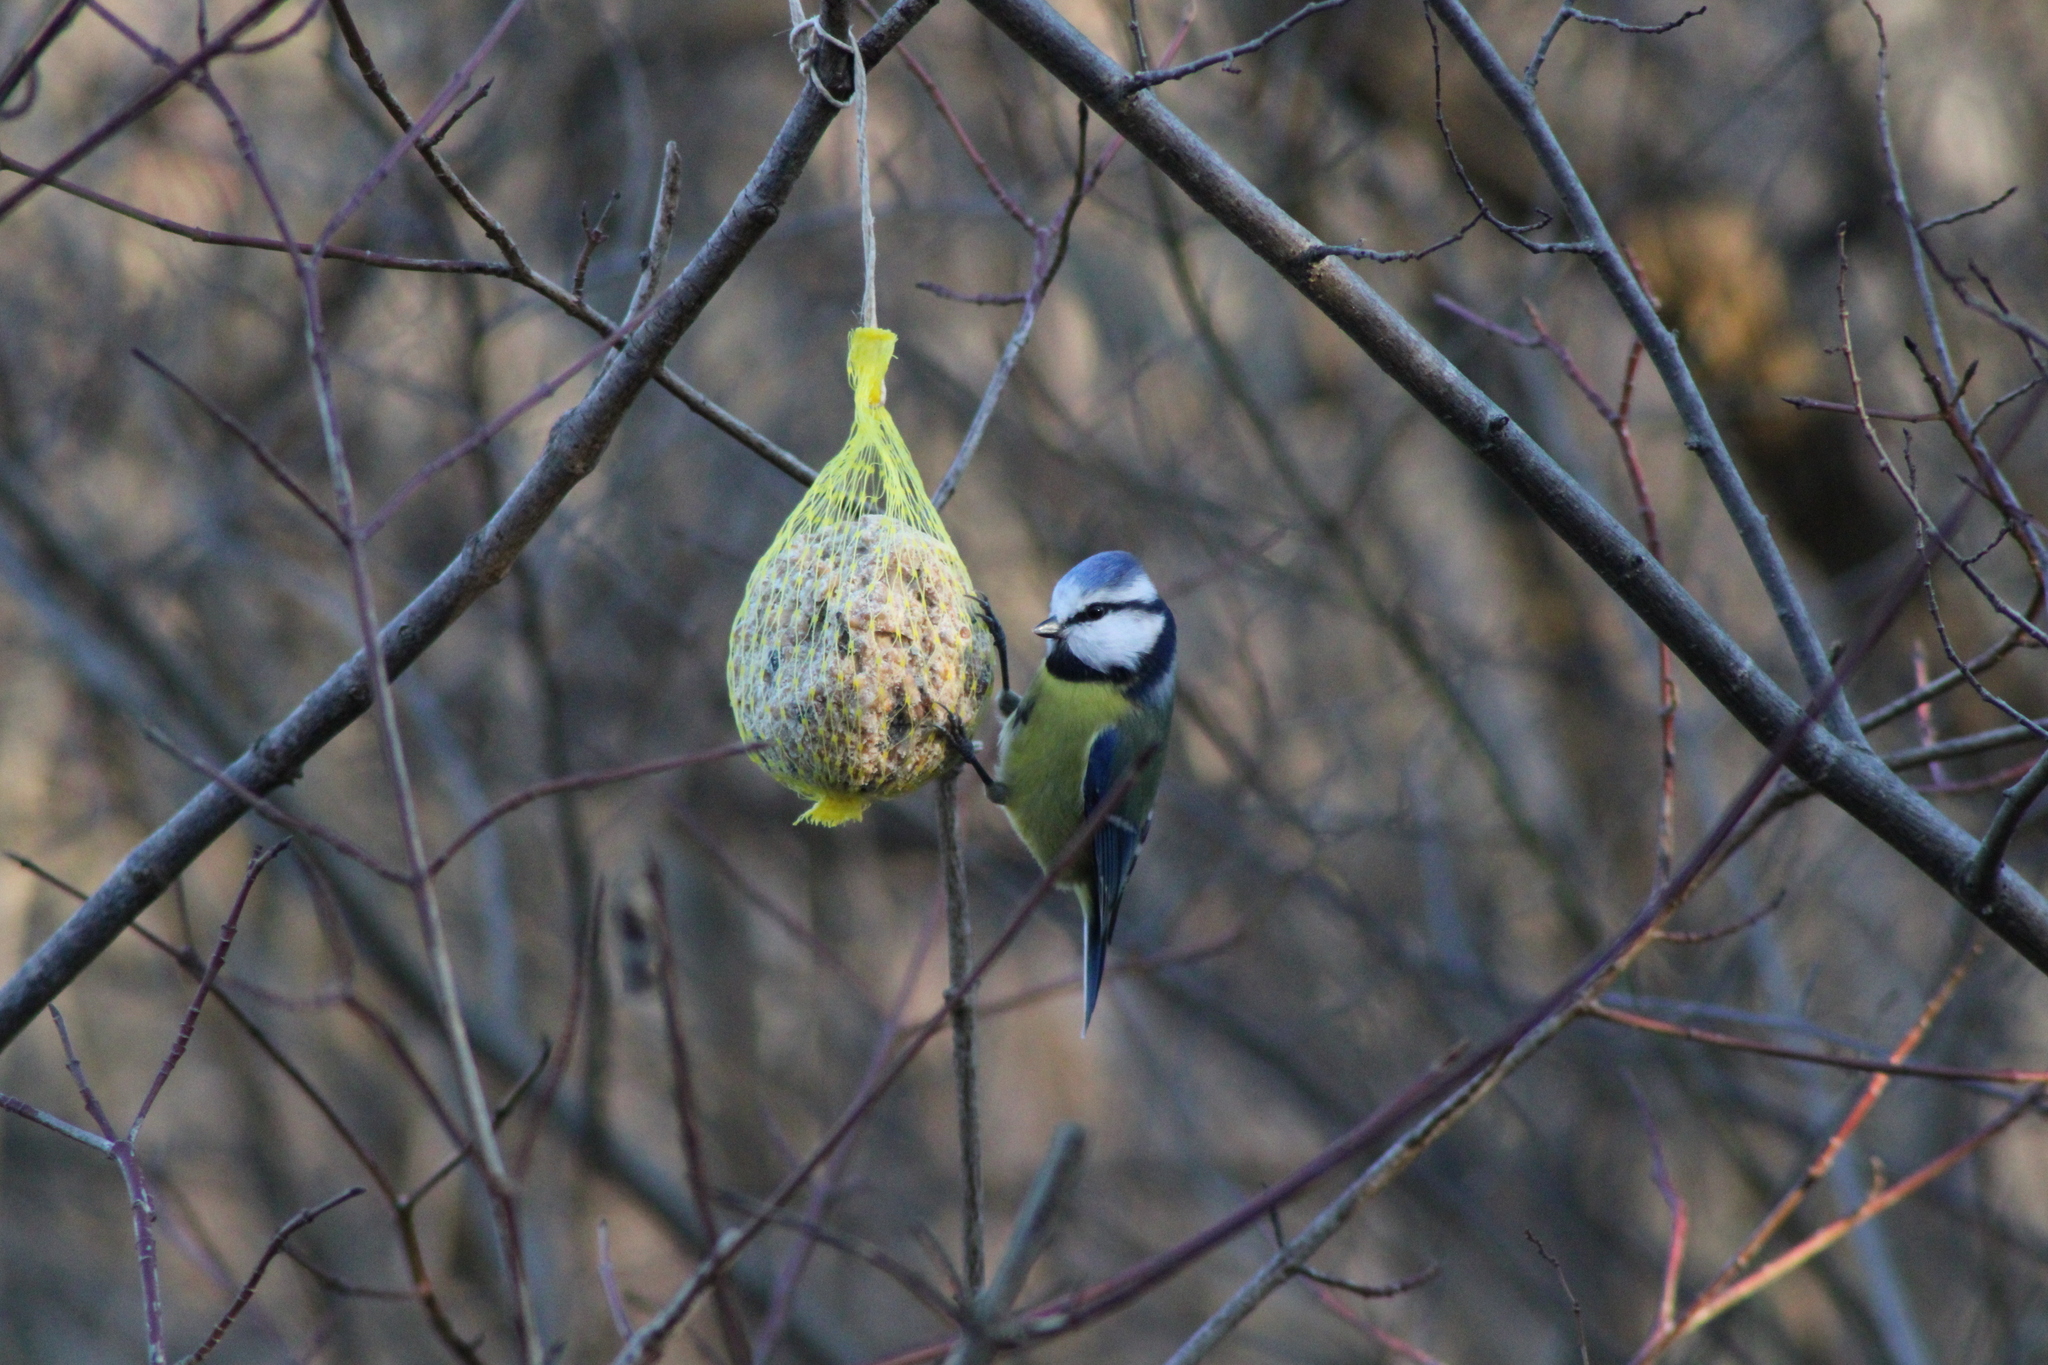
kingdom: Animalia
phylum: Chordata
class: Aves
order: Passeriformes
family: Paridae
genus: Cyanistes
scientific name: Cyanistes caeruleus
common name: Eurasian blue tit
